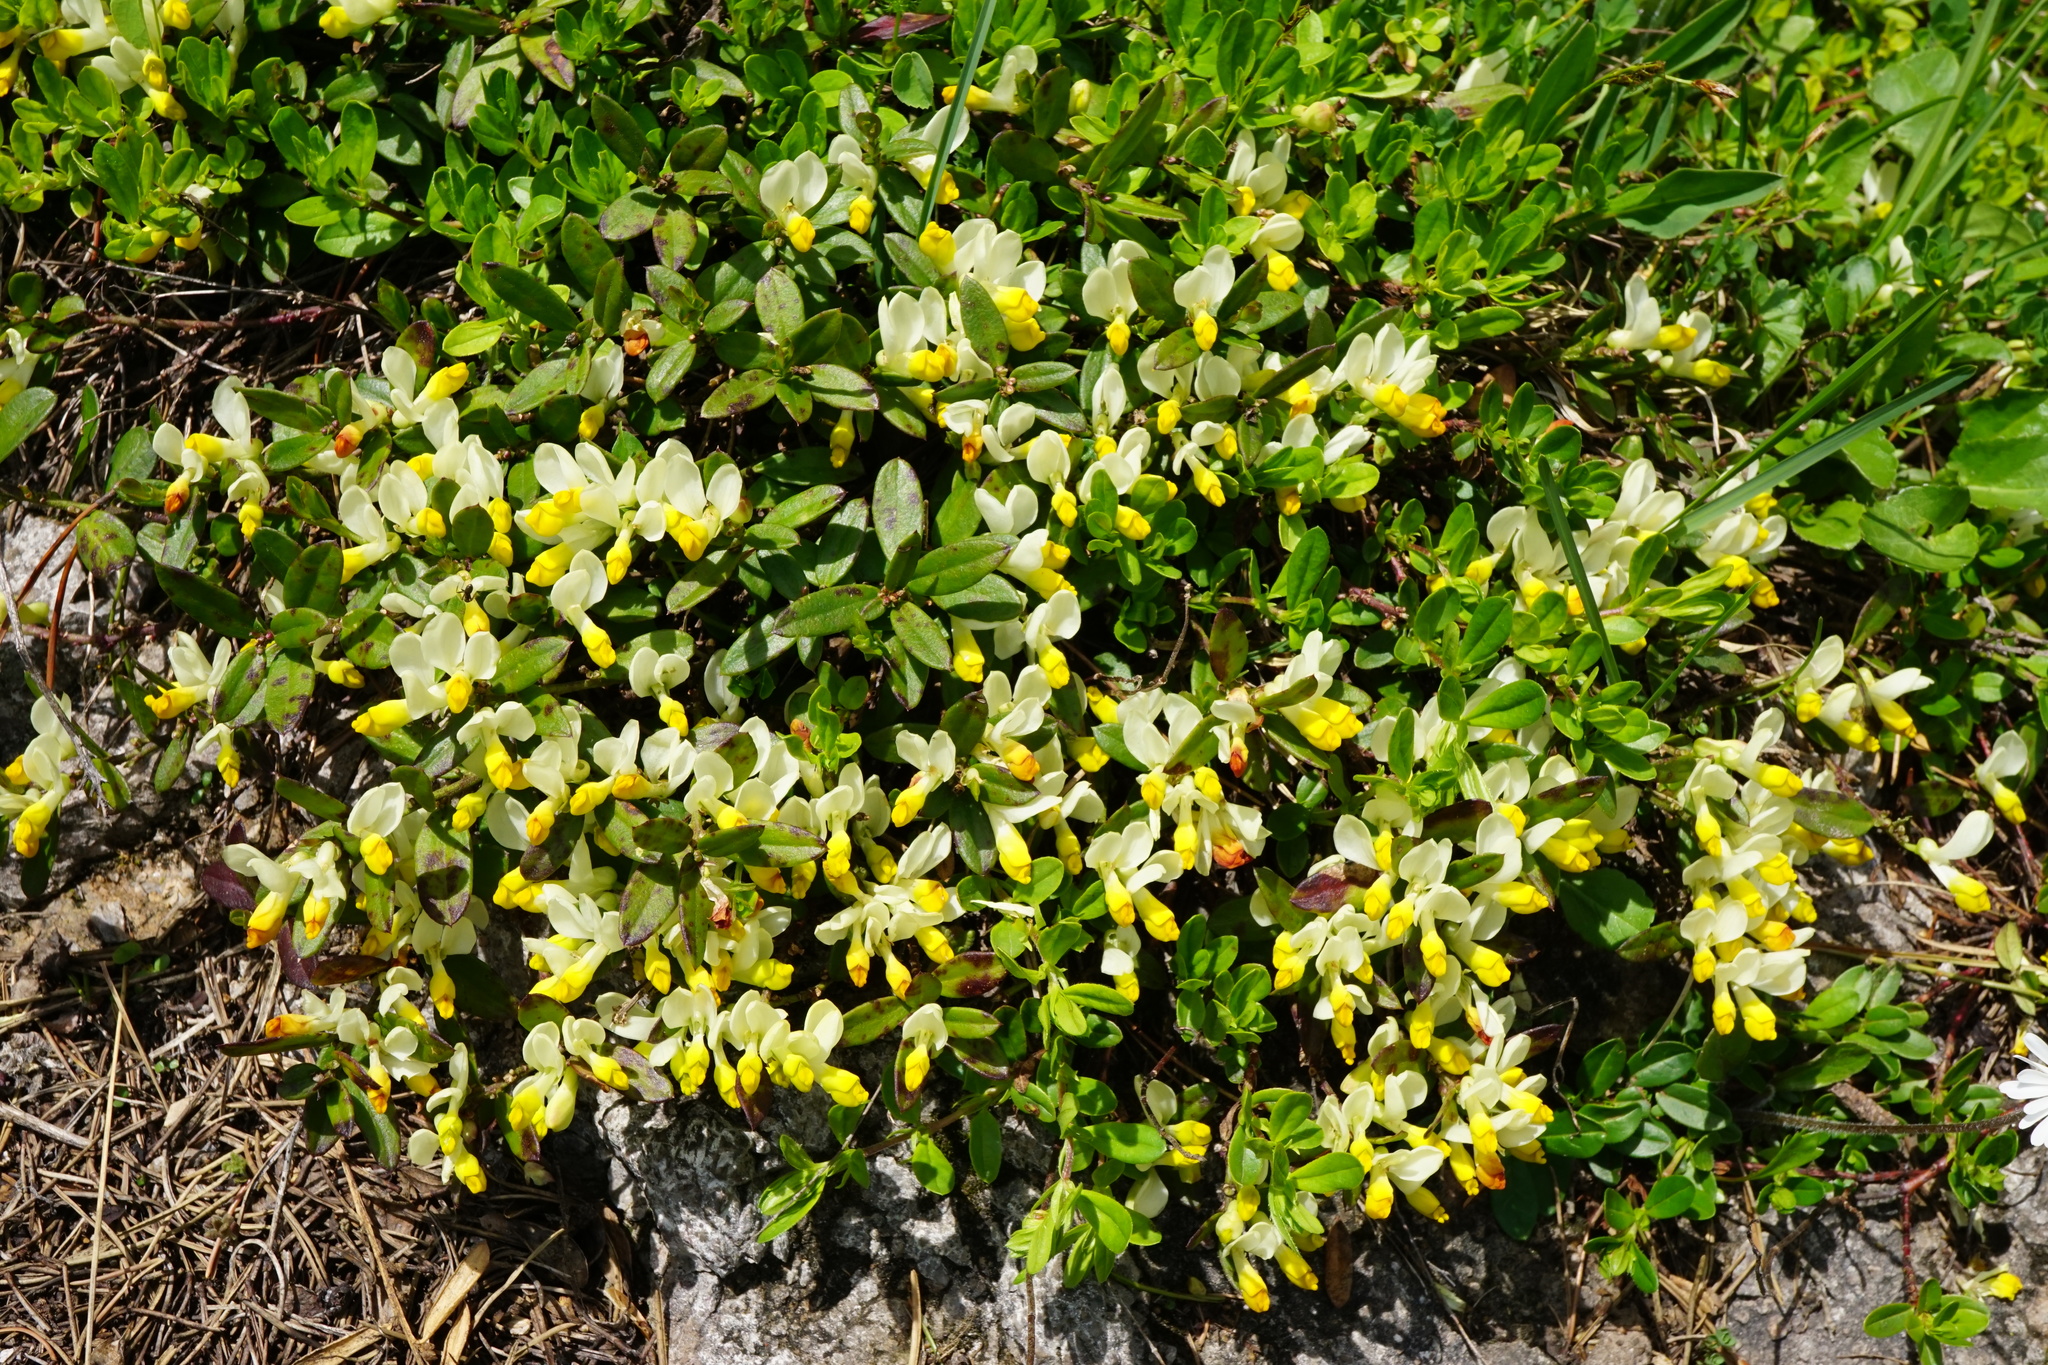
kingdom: Plantae
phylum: Tracheophyta
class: Magnoliopsida
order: Fabales
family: Polygalaceae
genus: Polygaloides
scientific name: Polygaloides chamaebuxus
